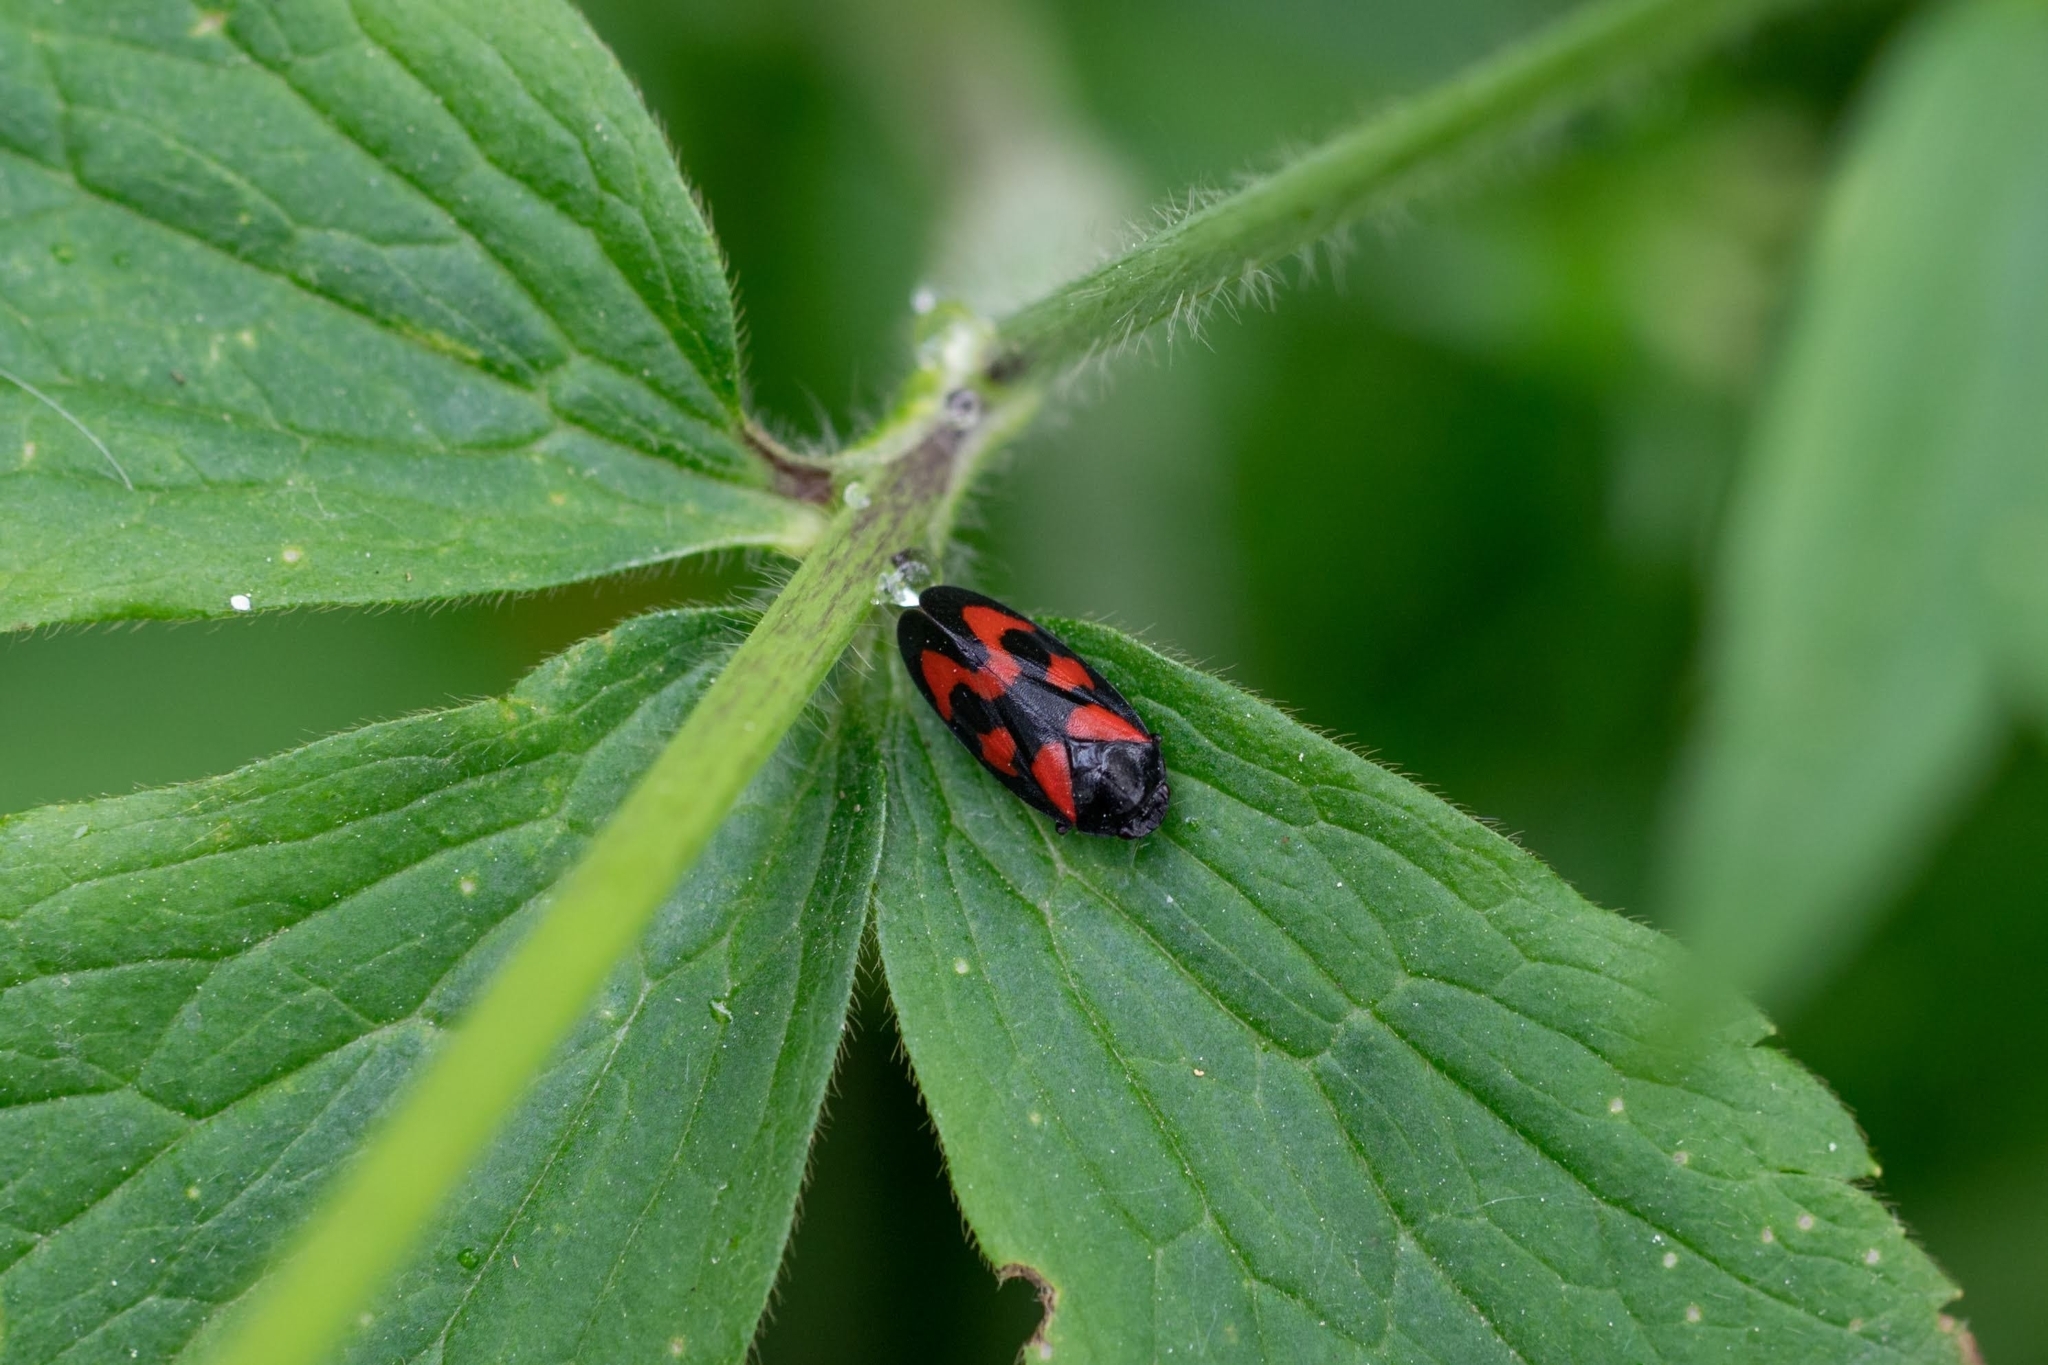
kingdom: Animalia
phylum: Arthropoda
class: Insecta
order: Hemiptera
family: Cercopidae
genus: Cercopis
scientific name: Cercopis vulnerata
